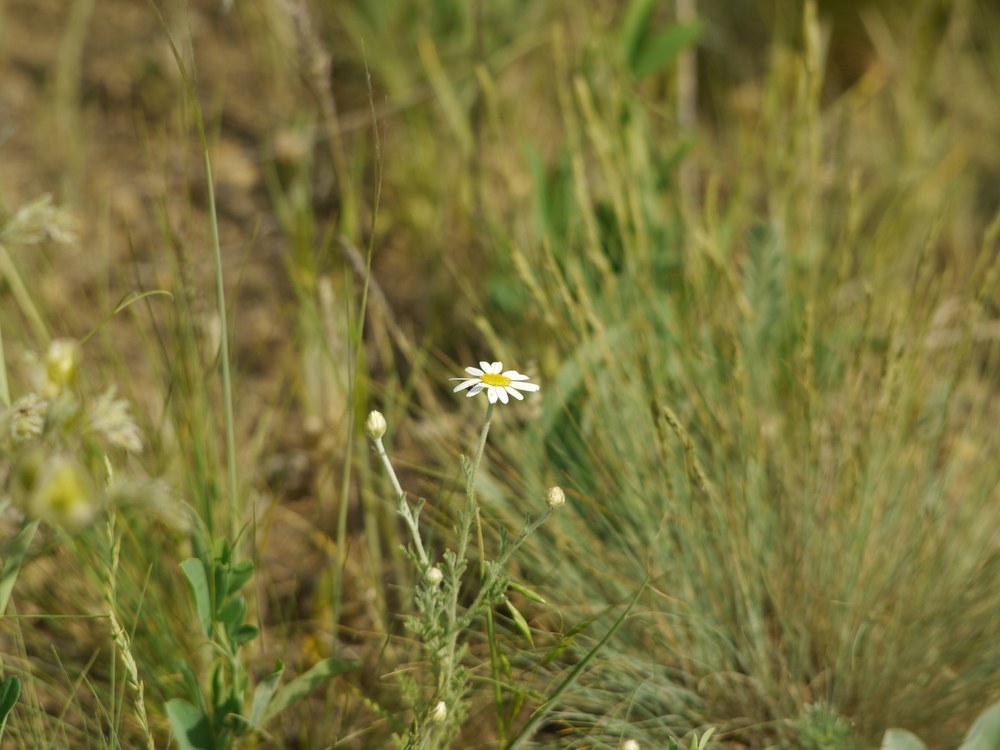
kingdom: Plantae
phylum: Tracheophyta
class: Magnoliopsida
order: Asterales
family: Asteraceae
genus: Anthemis
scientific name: Anthemis ruthenica
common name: Eastern chamomile
